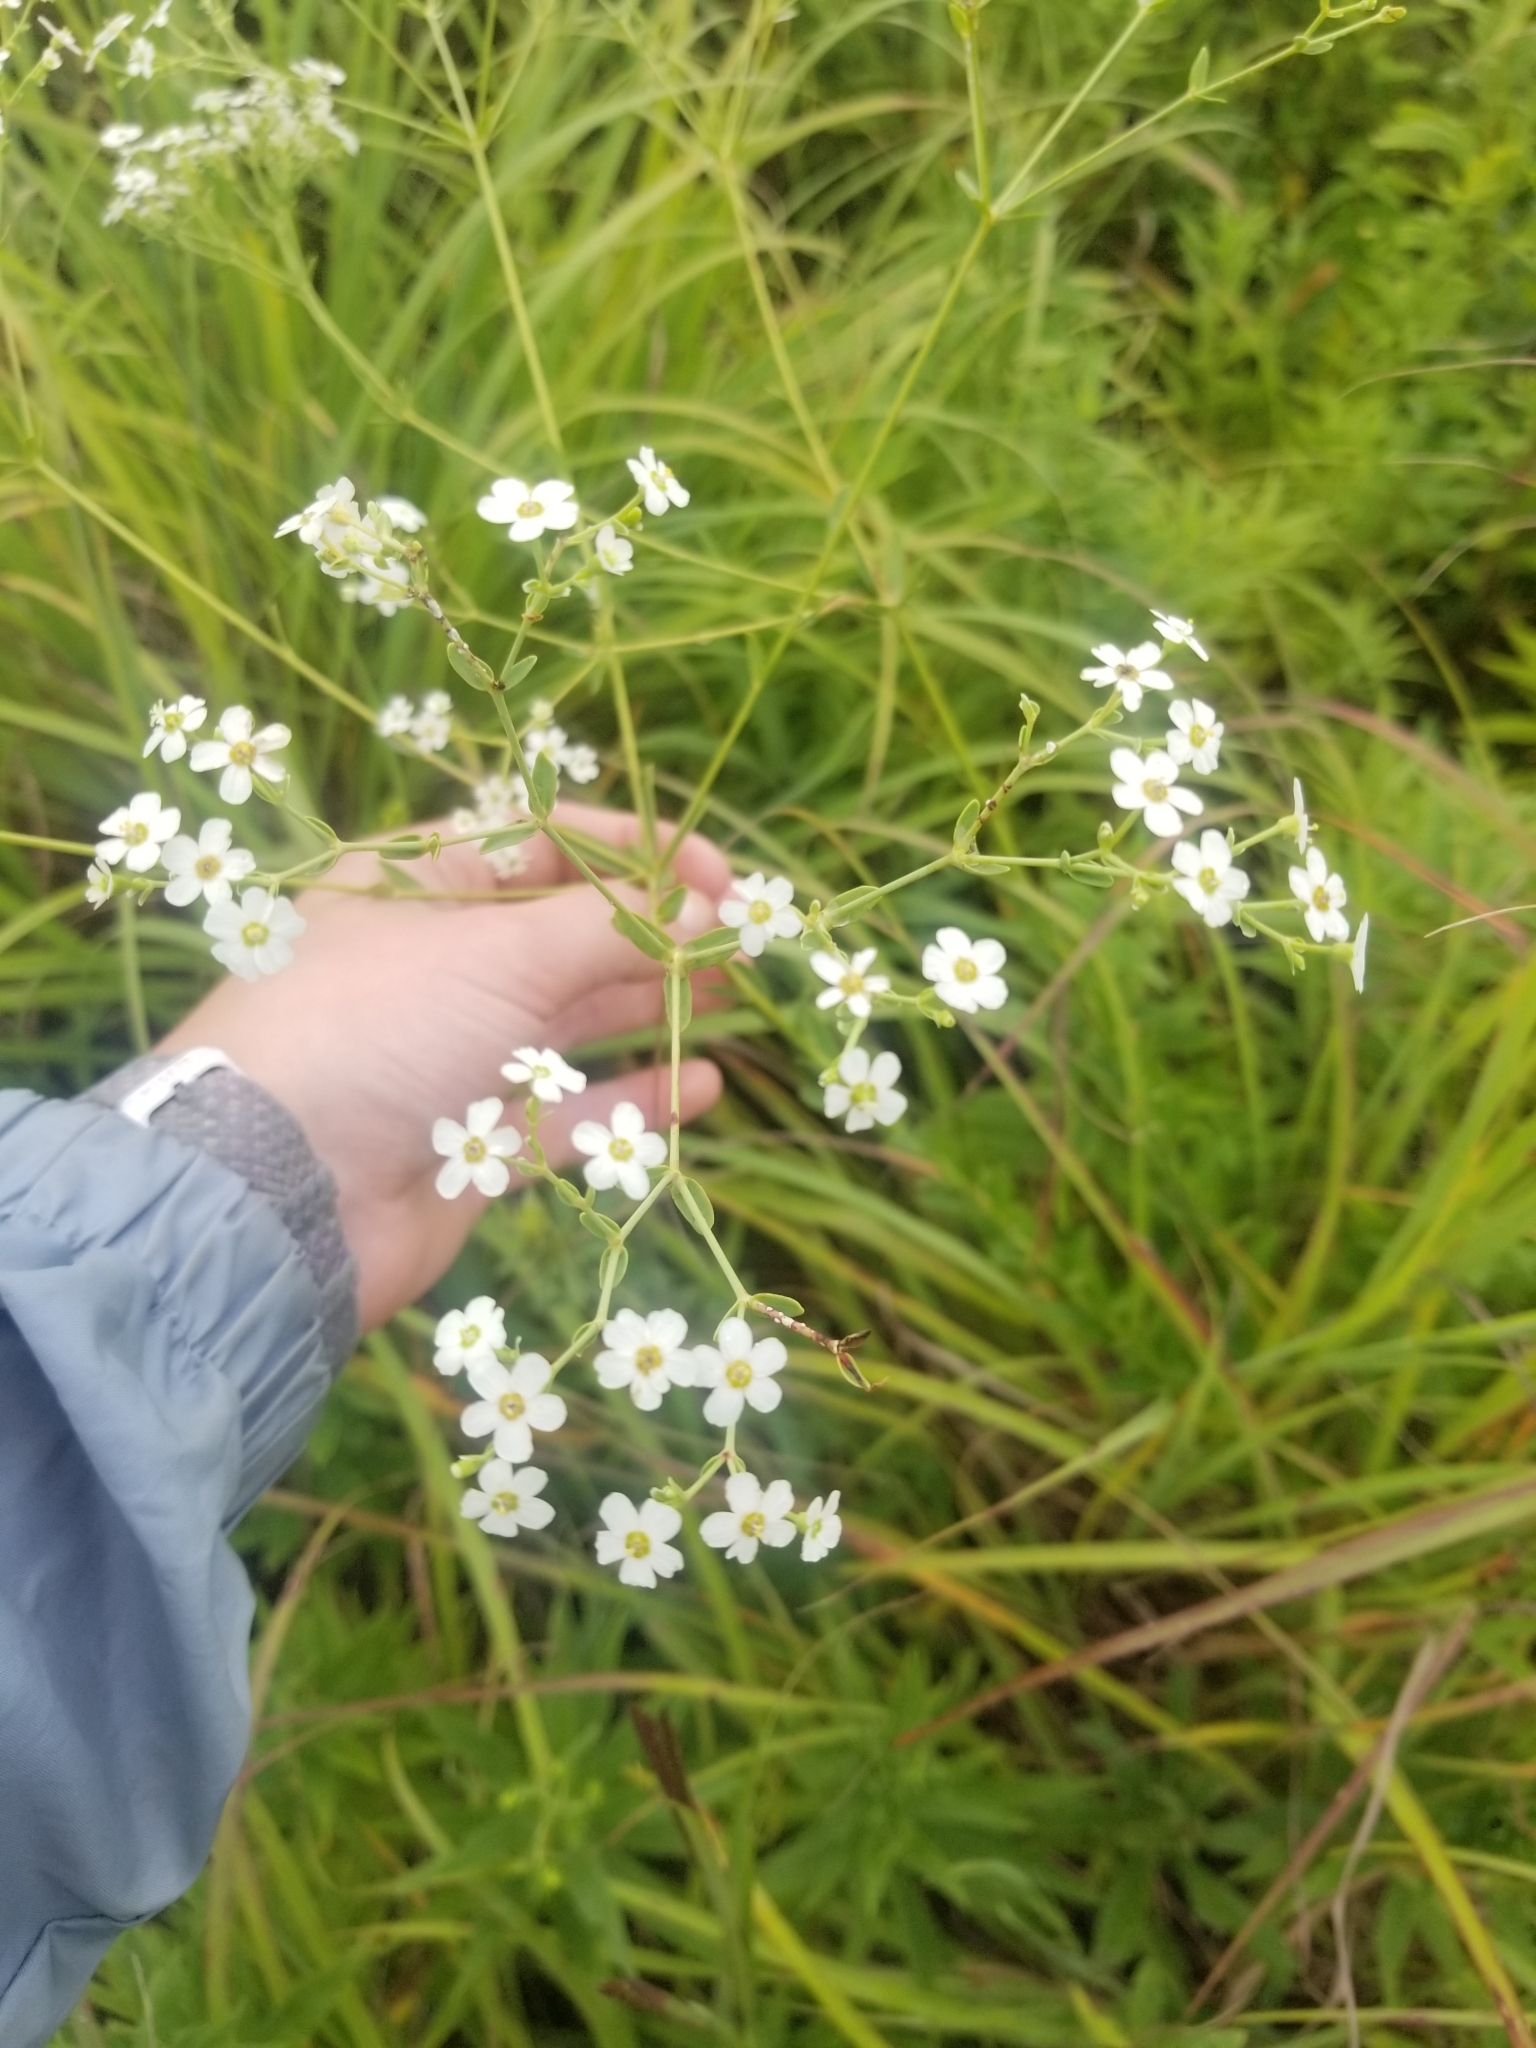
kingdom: Plantae
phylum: Tracheophyta
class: Magnoliopsida
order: Malpighiales
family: Euphorbiaceae
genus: Euphorbia
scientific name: Euphorbia corollata
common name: Flowering spurge
